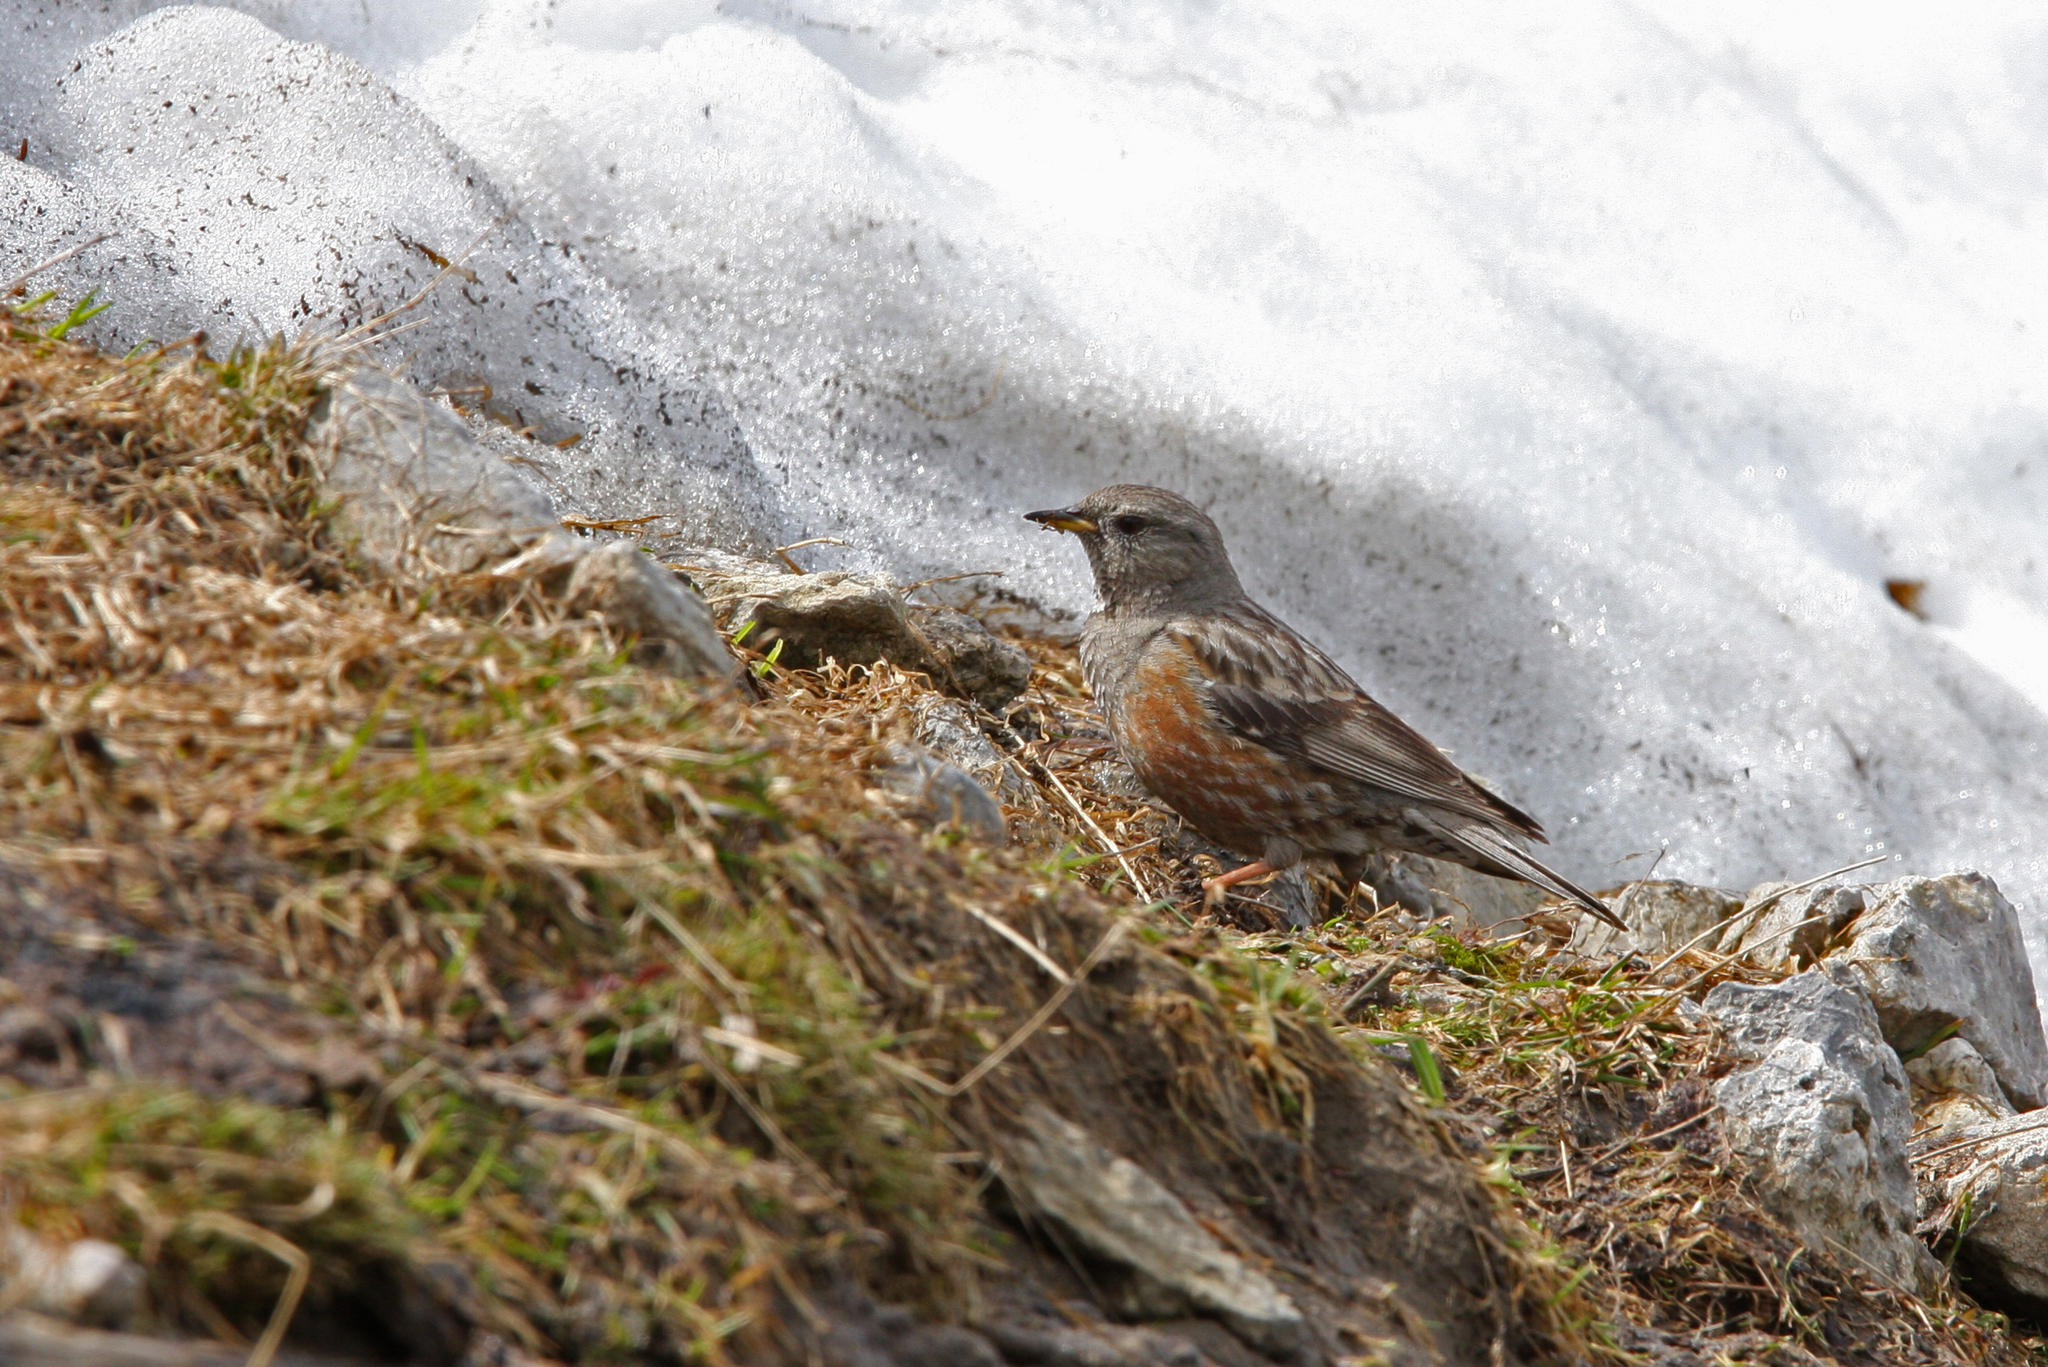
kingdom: Animalia
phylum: Chordata
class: Aves
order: Passeriformes
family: Prunellidae
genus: Prunella
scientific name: Prunella collaris
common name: Alpine accentor
